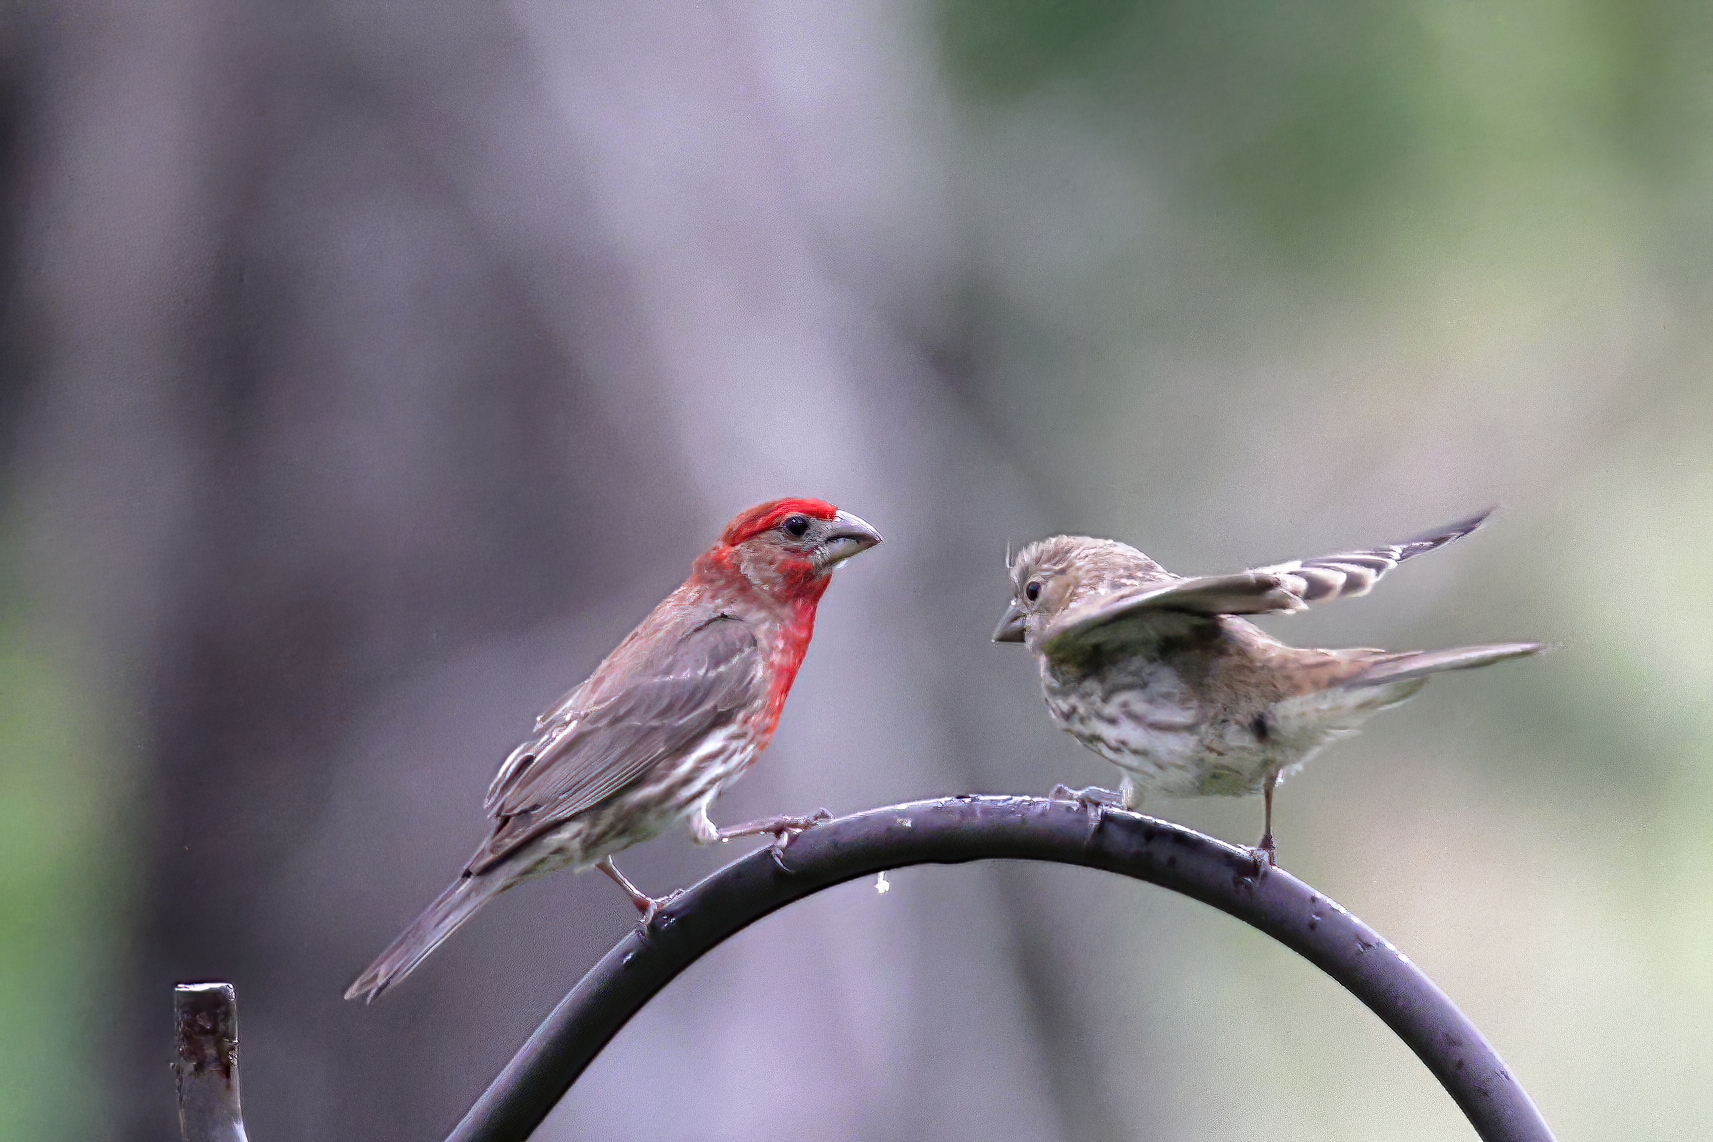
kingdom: Animalia
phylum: Chordata
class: Aves
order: Passeriformes
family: Fringillidae
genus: Haemorhous
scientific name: Haemorhous mexicanus
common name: House finch
